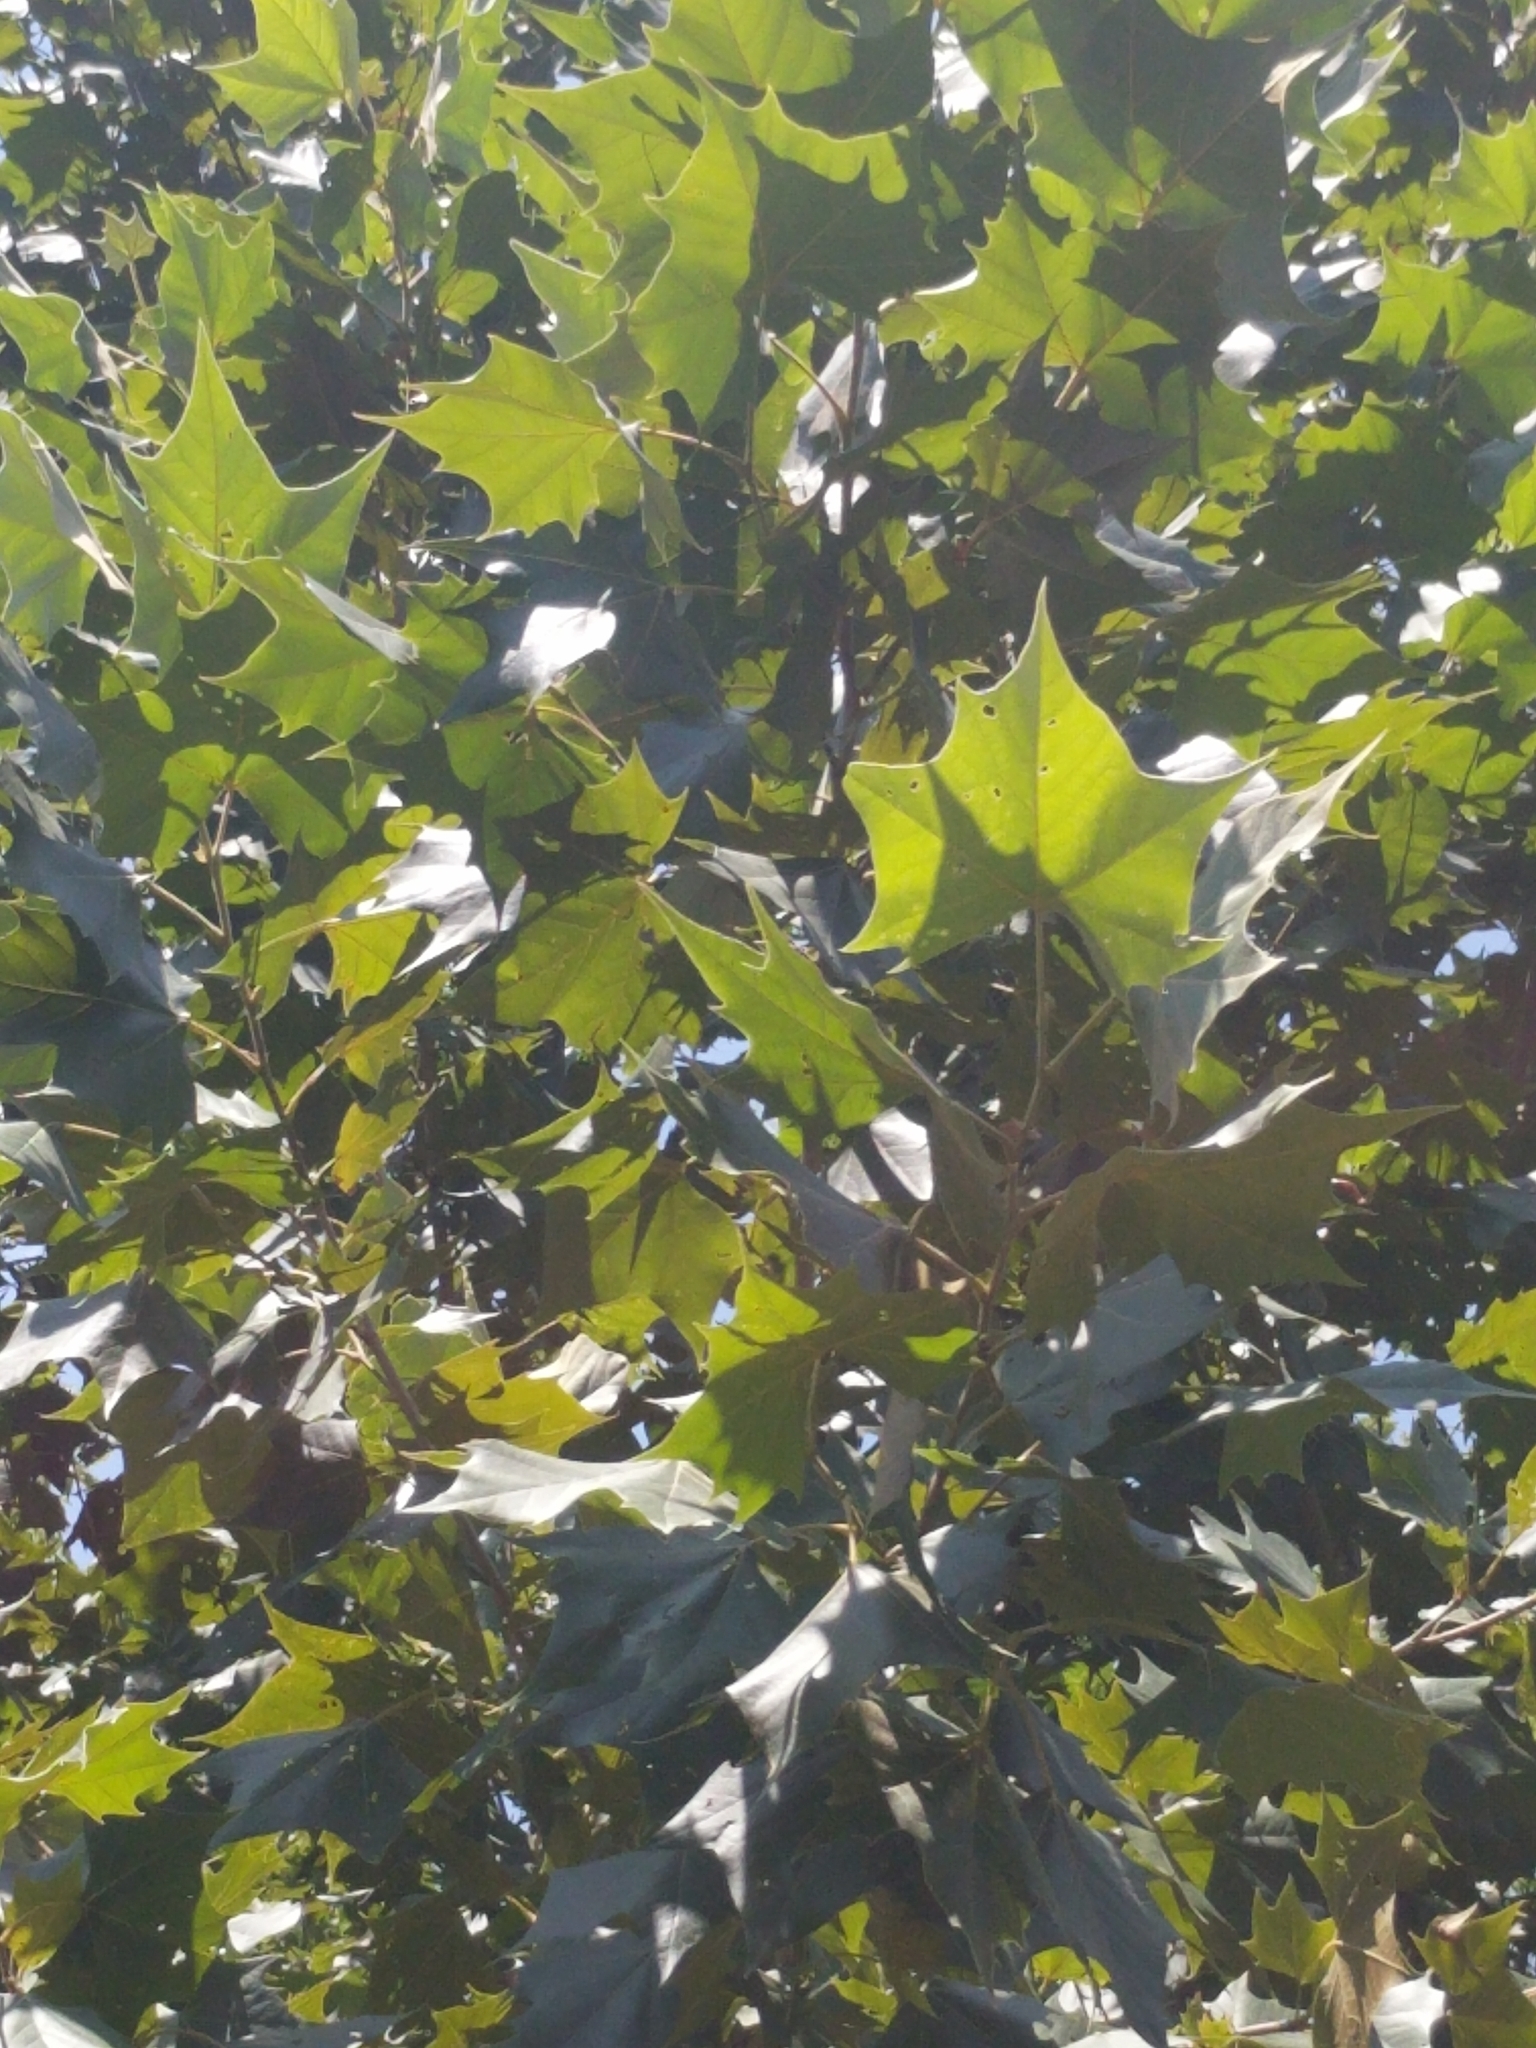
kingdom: Plantae
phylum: Tracheophyta
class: Magnoliopsida
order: Proteales
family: Platanaceae
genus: Platanus
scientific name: Platanus occidentalis
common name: American sycamore
